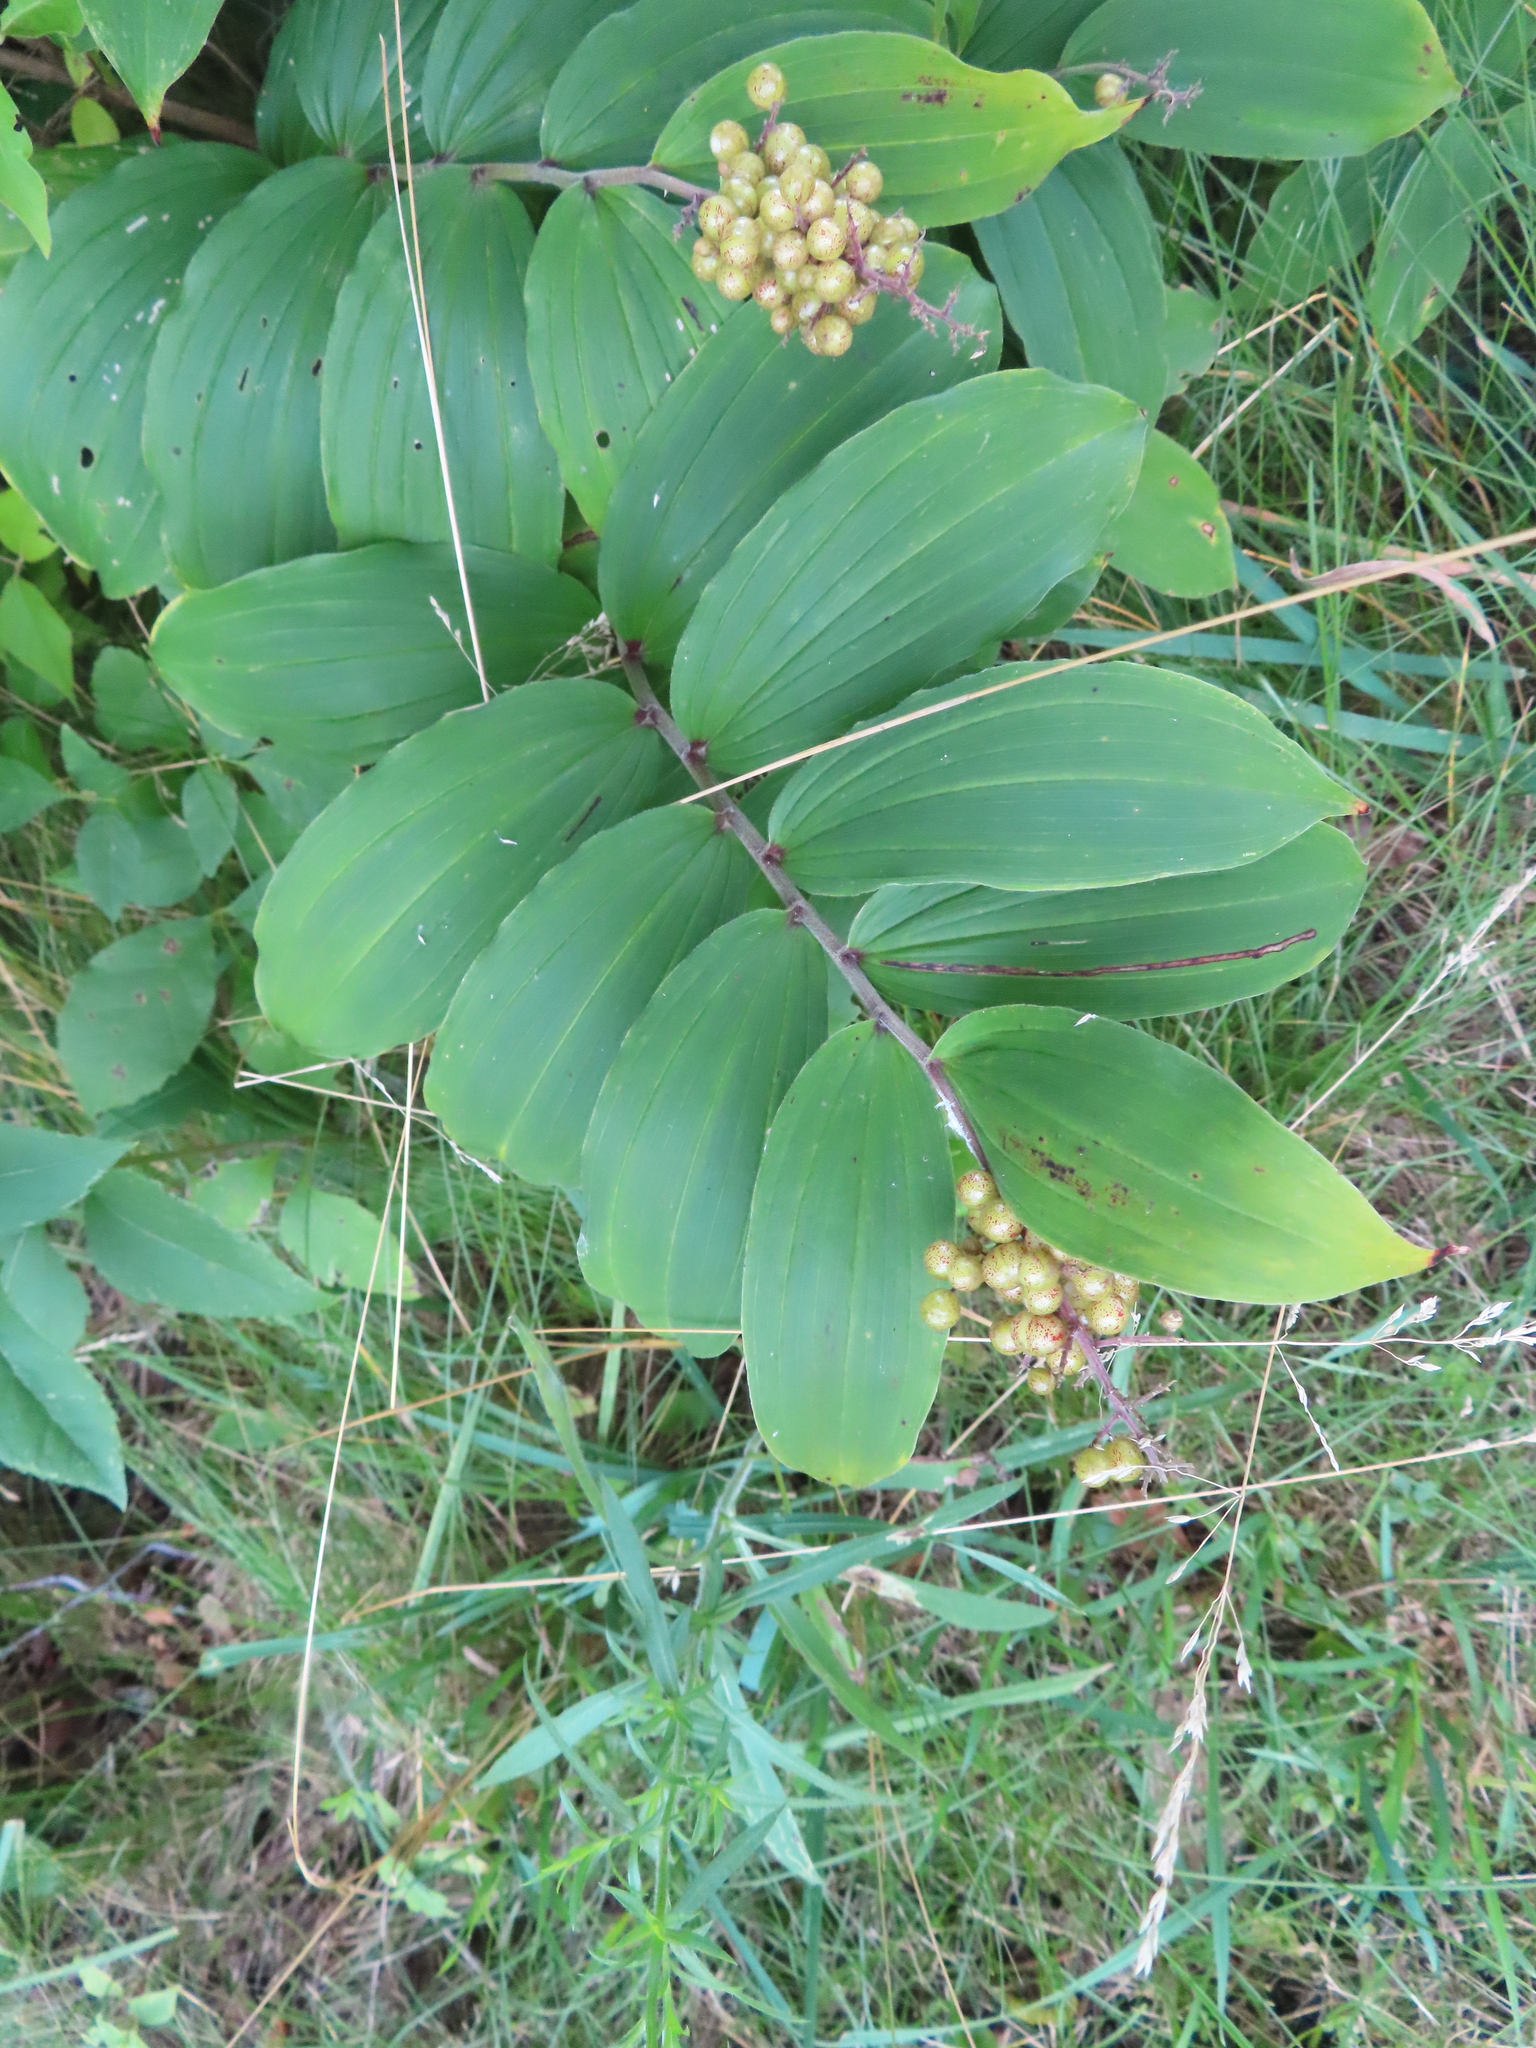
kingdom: Plantae
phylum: Tracheophyta
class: Liliopsida
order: Asparagales
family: Asparagaceae
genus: Maianthemum
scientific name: Maianthemum racemosum
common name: False spikenard
